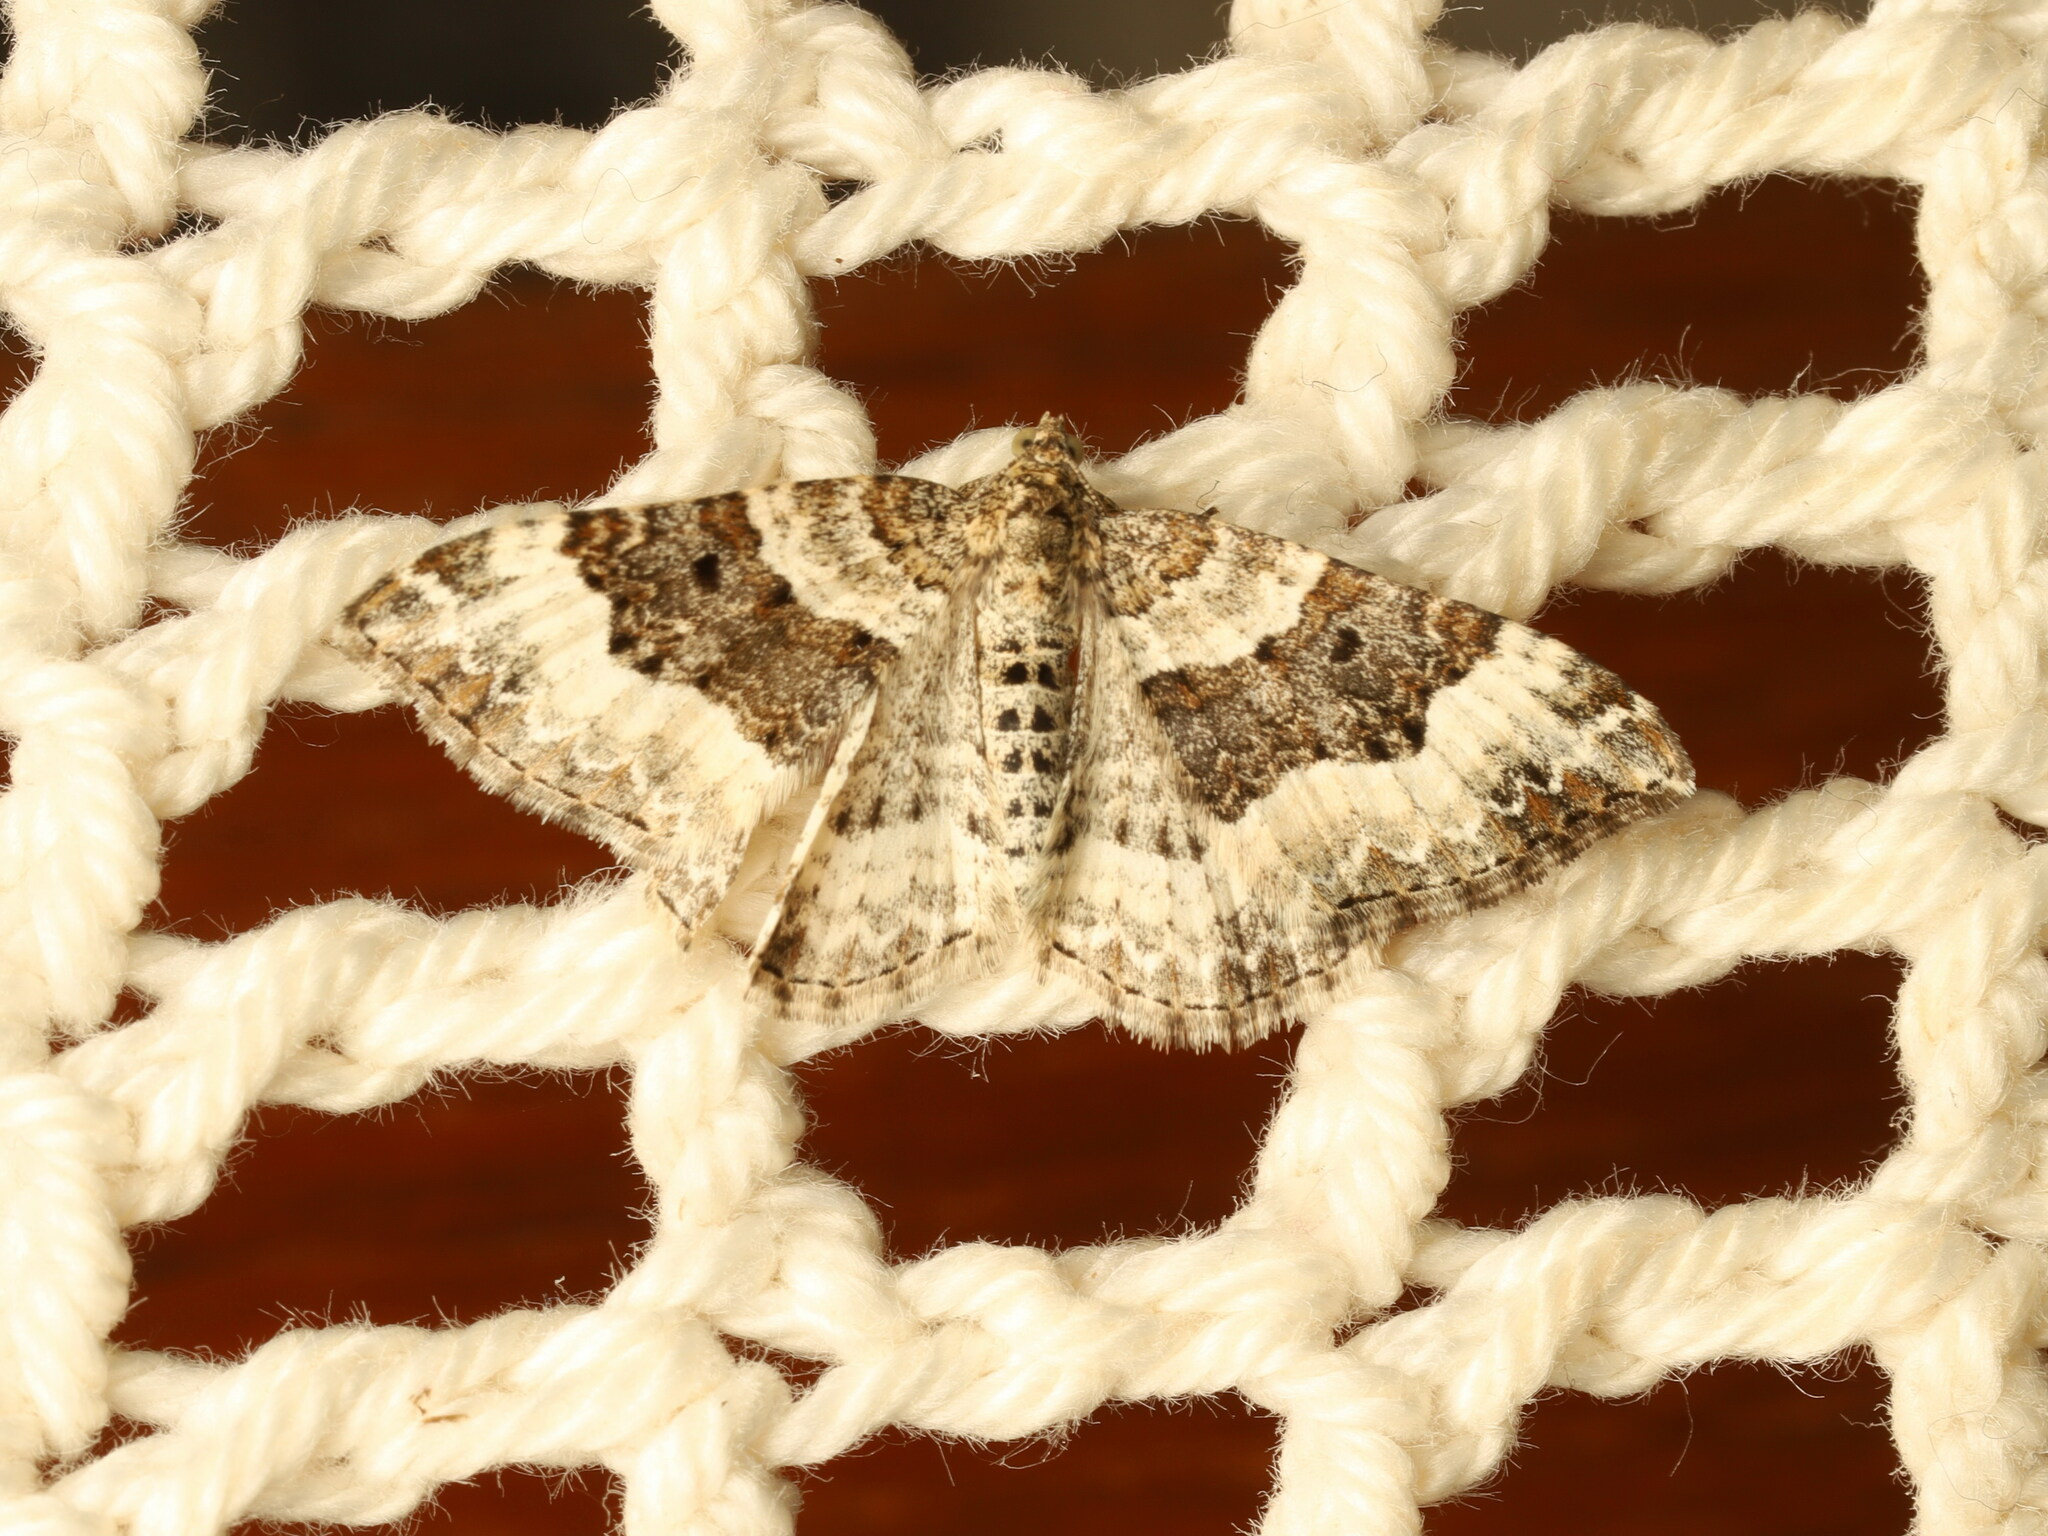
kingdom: Animalia
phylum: Arthropoda
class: Insecta
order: Lepidoptera
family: Geometridae
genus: Epirrhoe
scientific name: Epirrhoe alternata
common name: Common carpet
